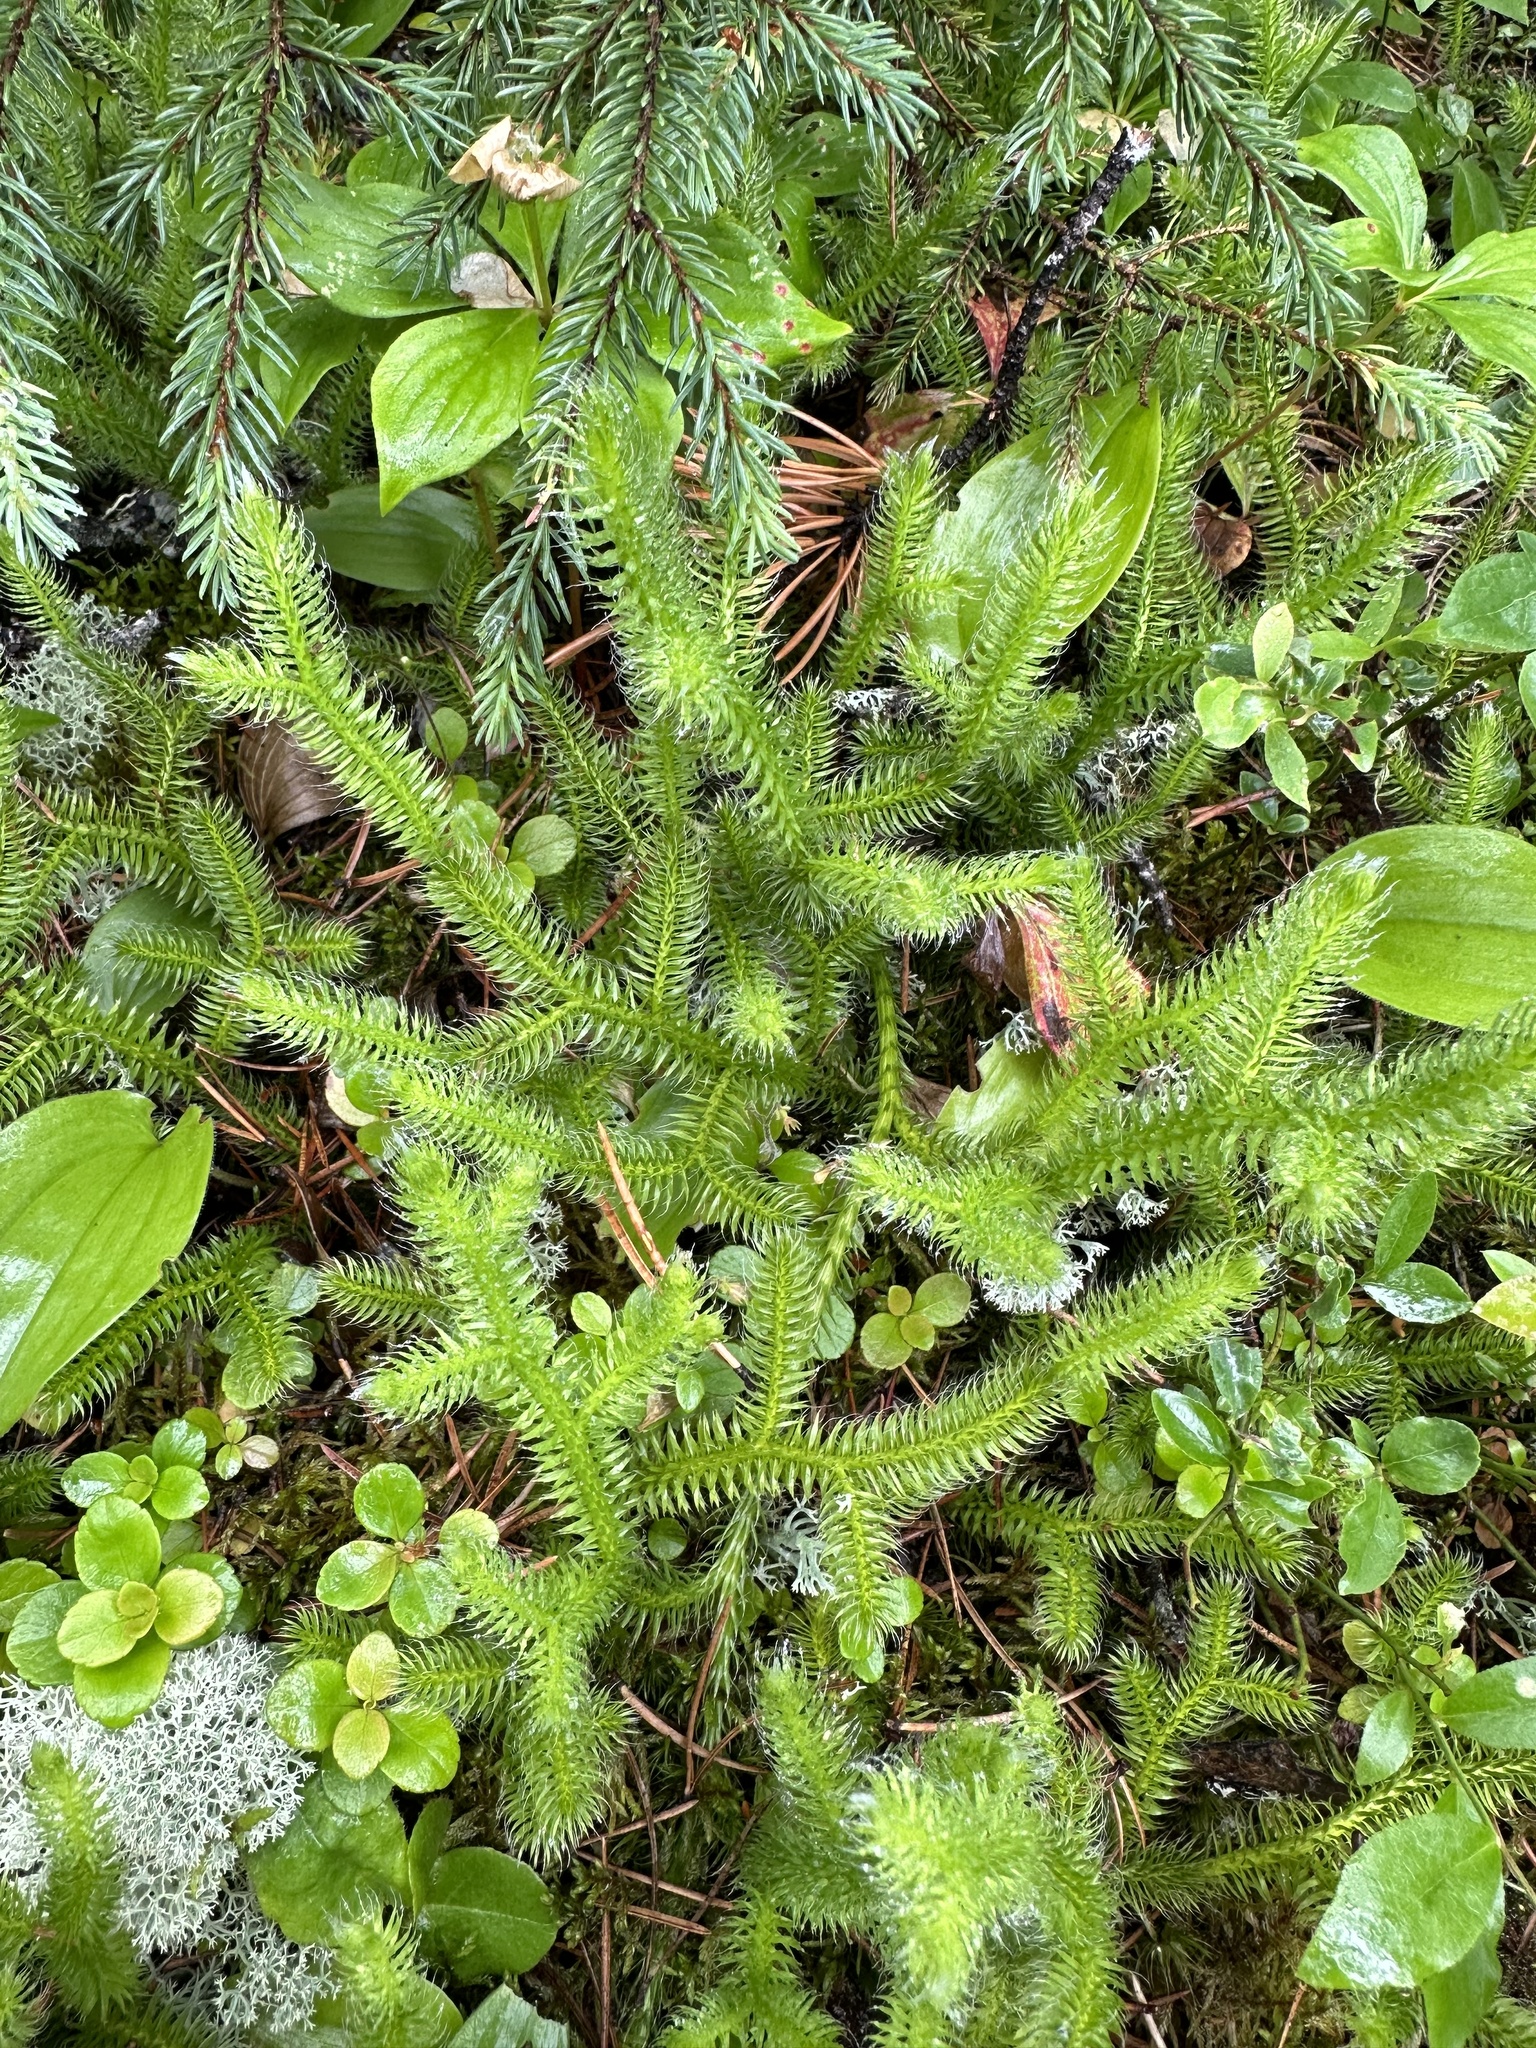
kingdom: Plantae
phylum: Tracheophyta
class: Lycopodiopsida
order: Lycopodiales
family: Lycopodiaceae
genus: Lycopodium
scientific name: Lycopodium clavatum
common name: Stag's-horn clubmoss
